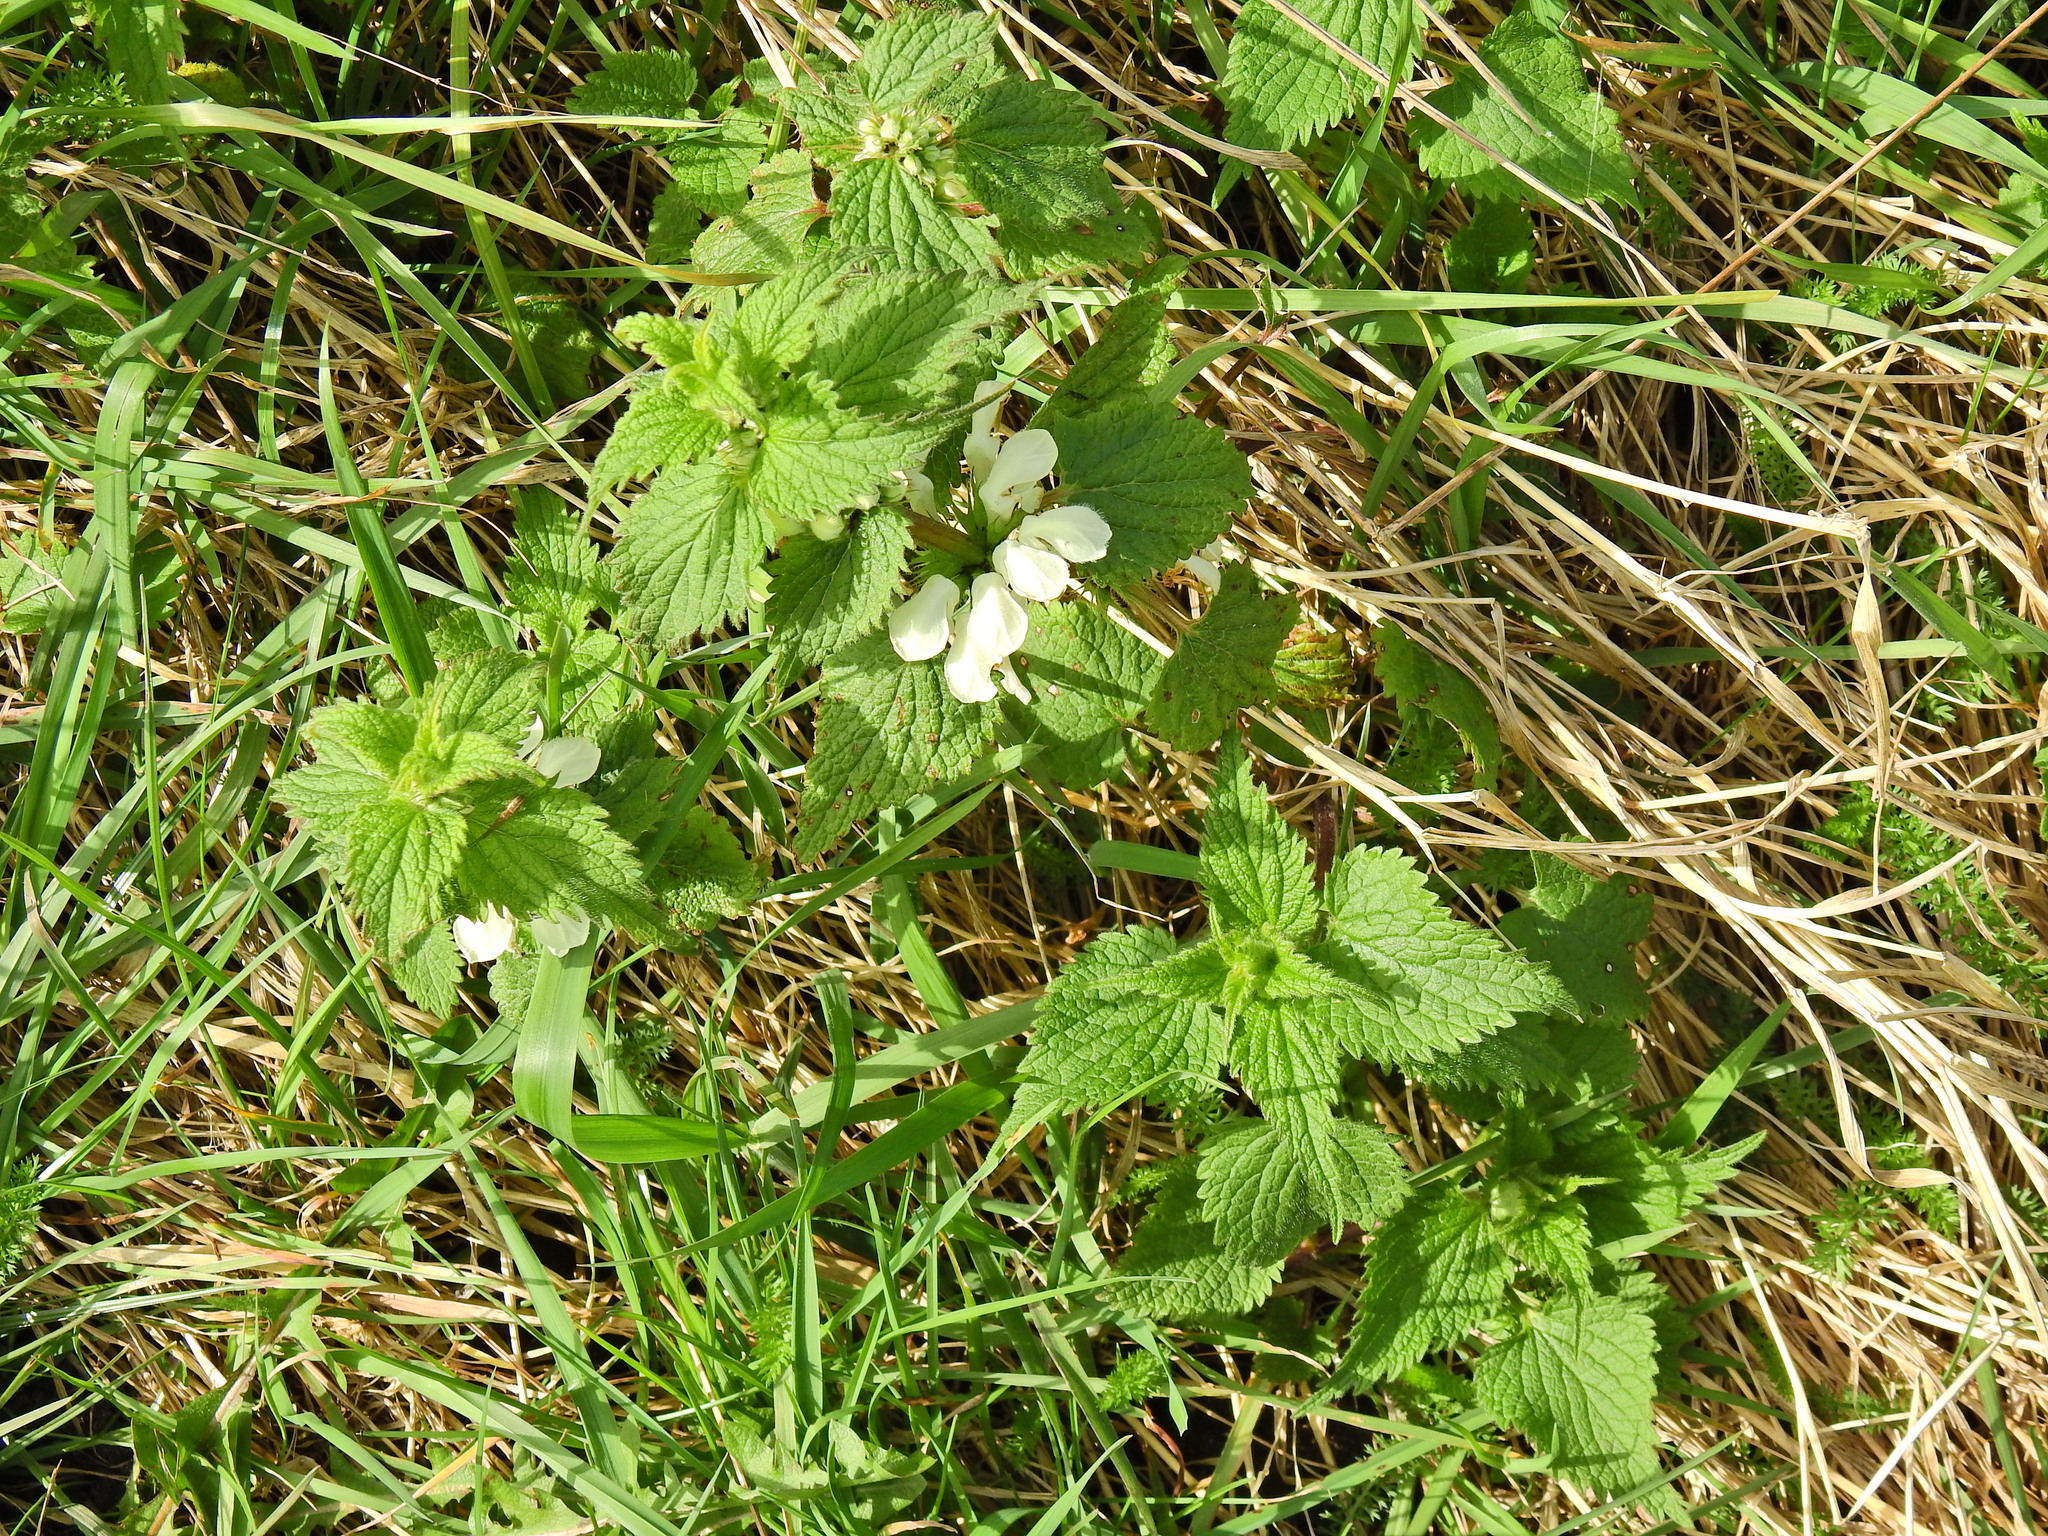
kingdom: Plantae
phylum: Tracheophyta
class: Magnoliopsida
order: Lamiales
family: Lamiaceae
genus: Lamium
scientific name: Lamium album
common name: White dead-nettle
